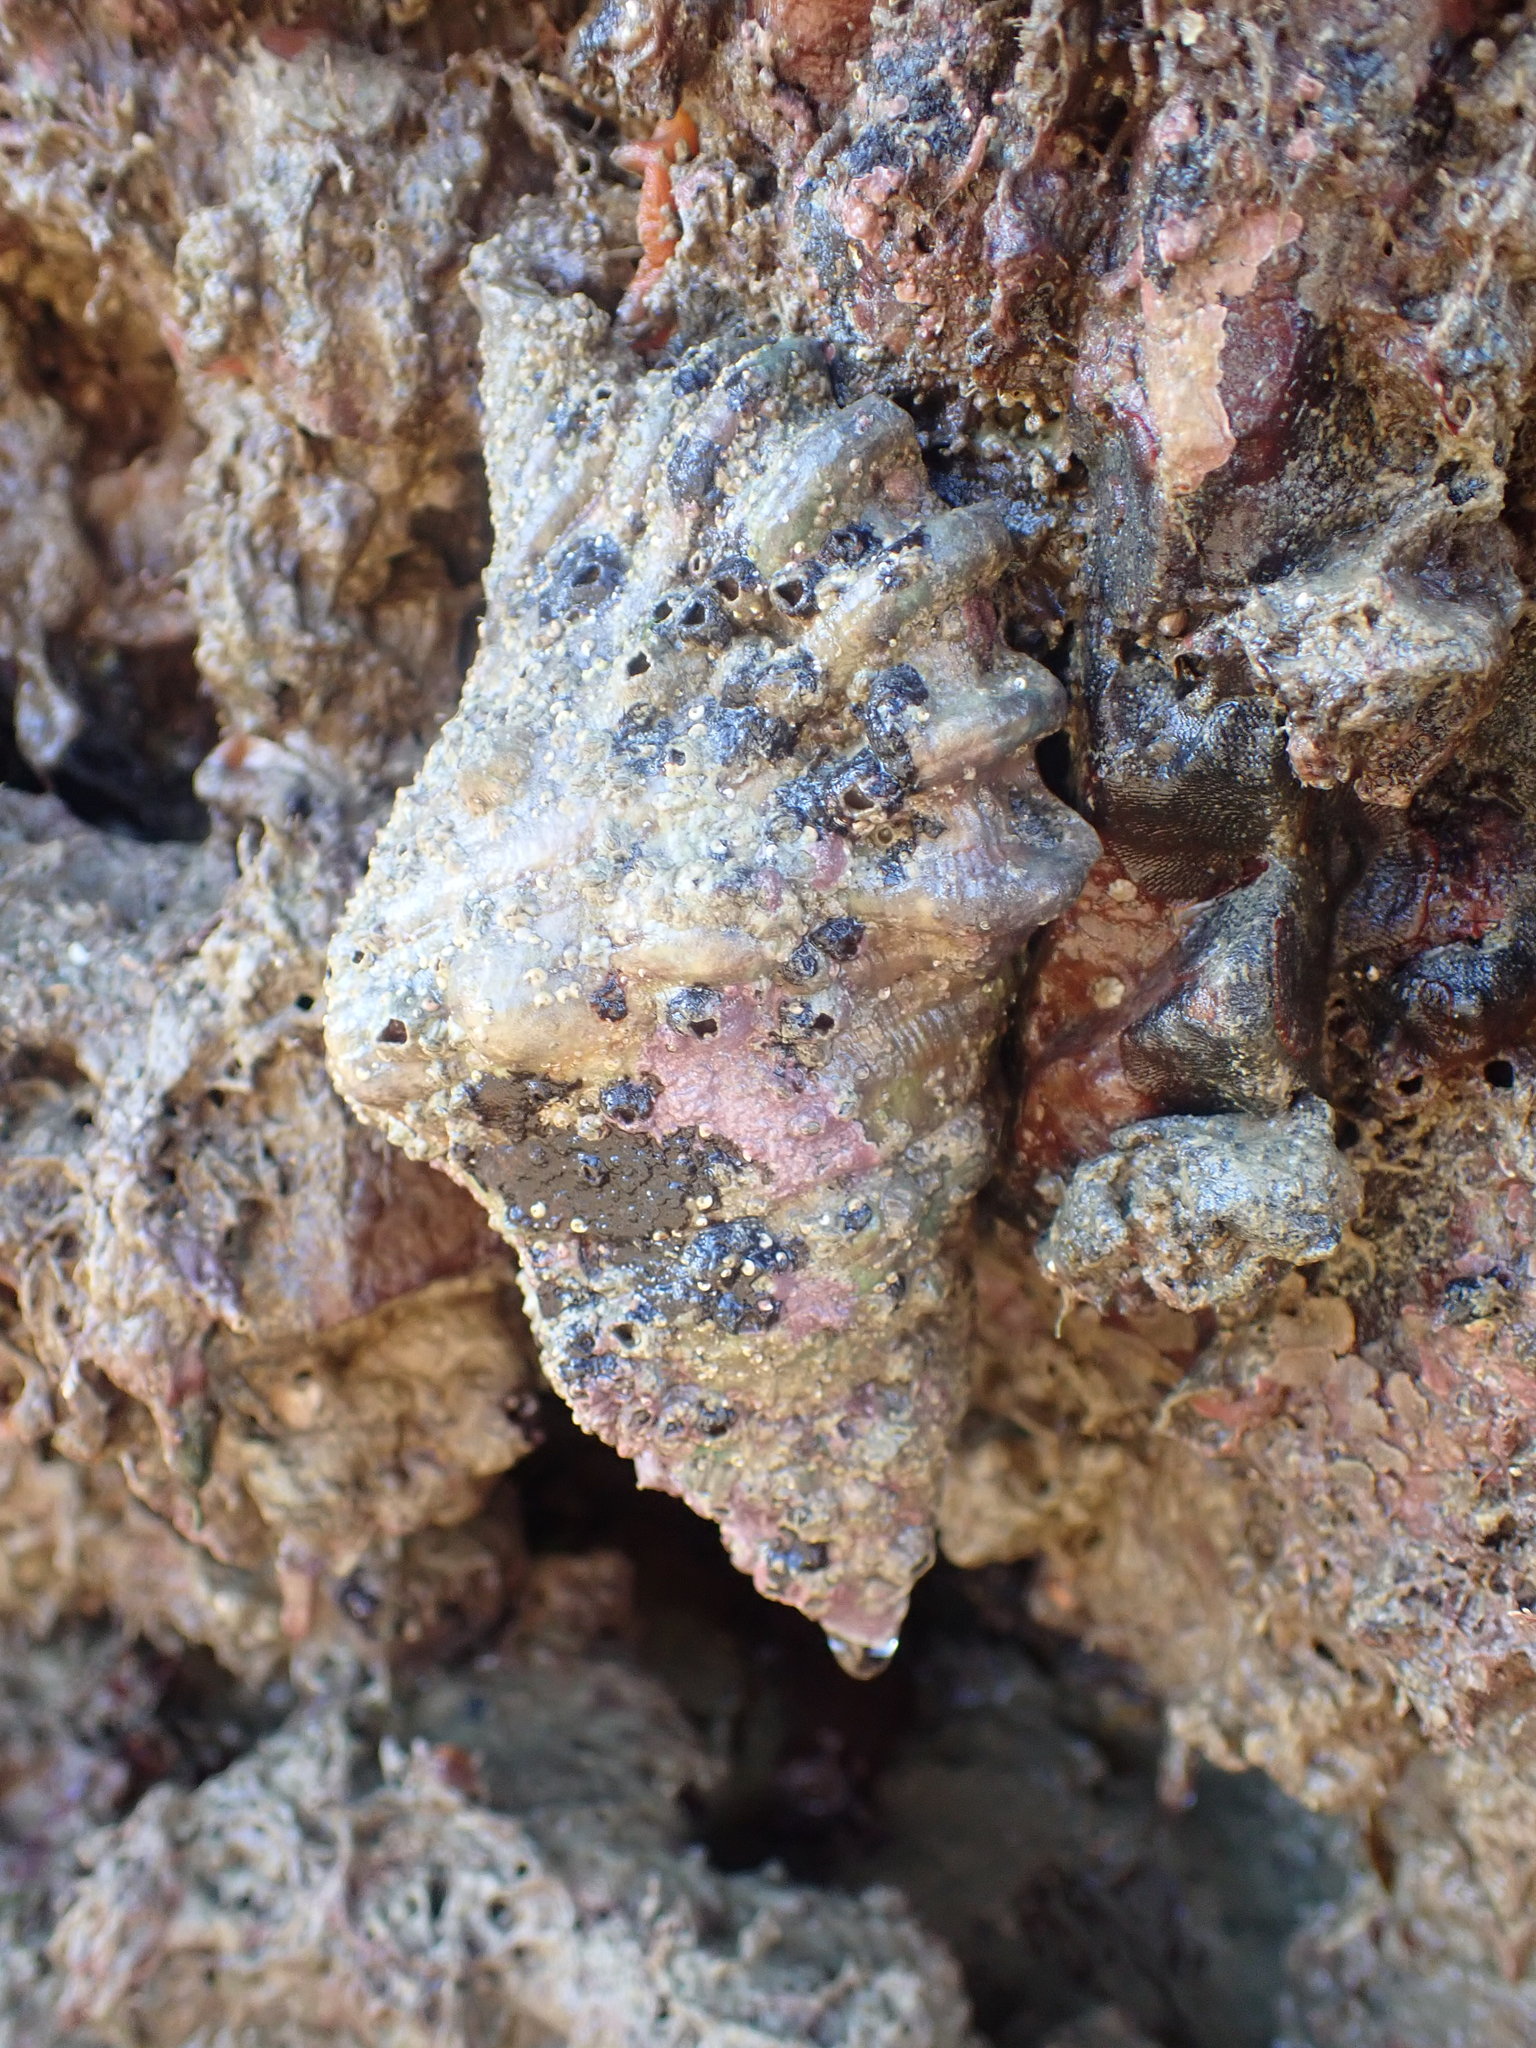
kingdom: Animalia
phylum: Mollusca
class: Gastropoda
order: Littorinimorpha
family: Cymatiidae
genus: Cabestana
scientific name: Cabestana spengleri
